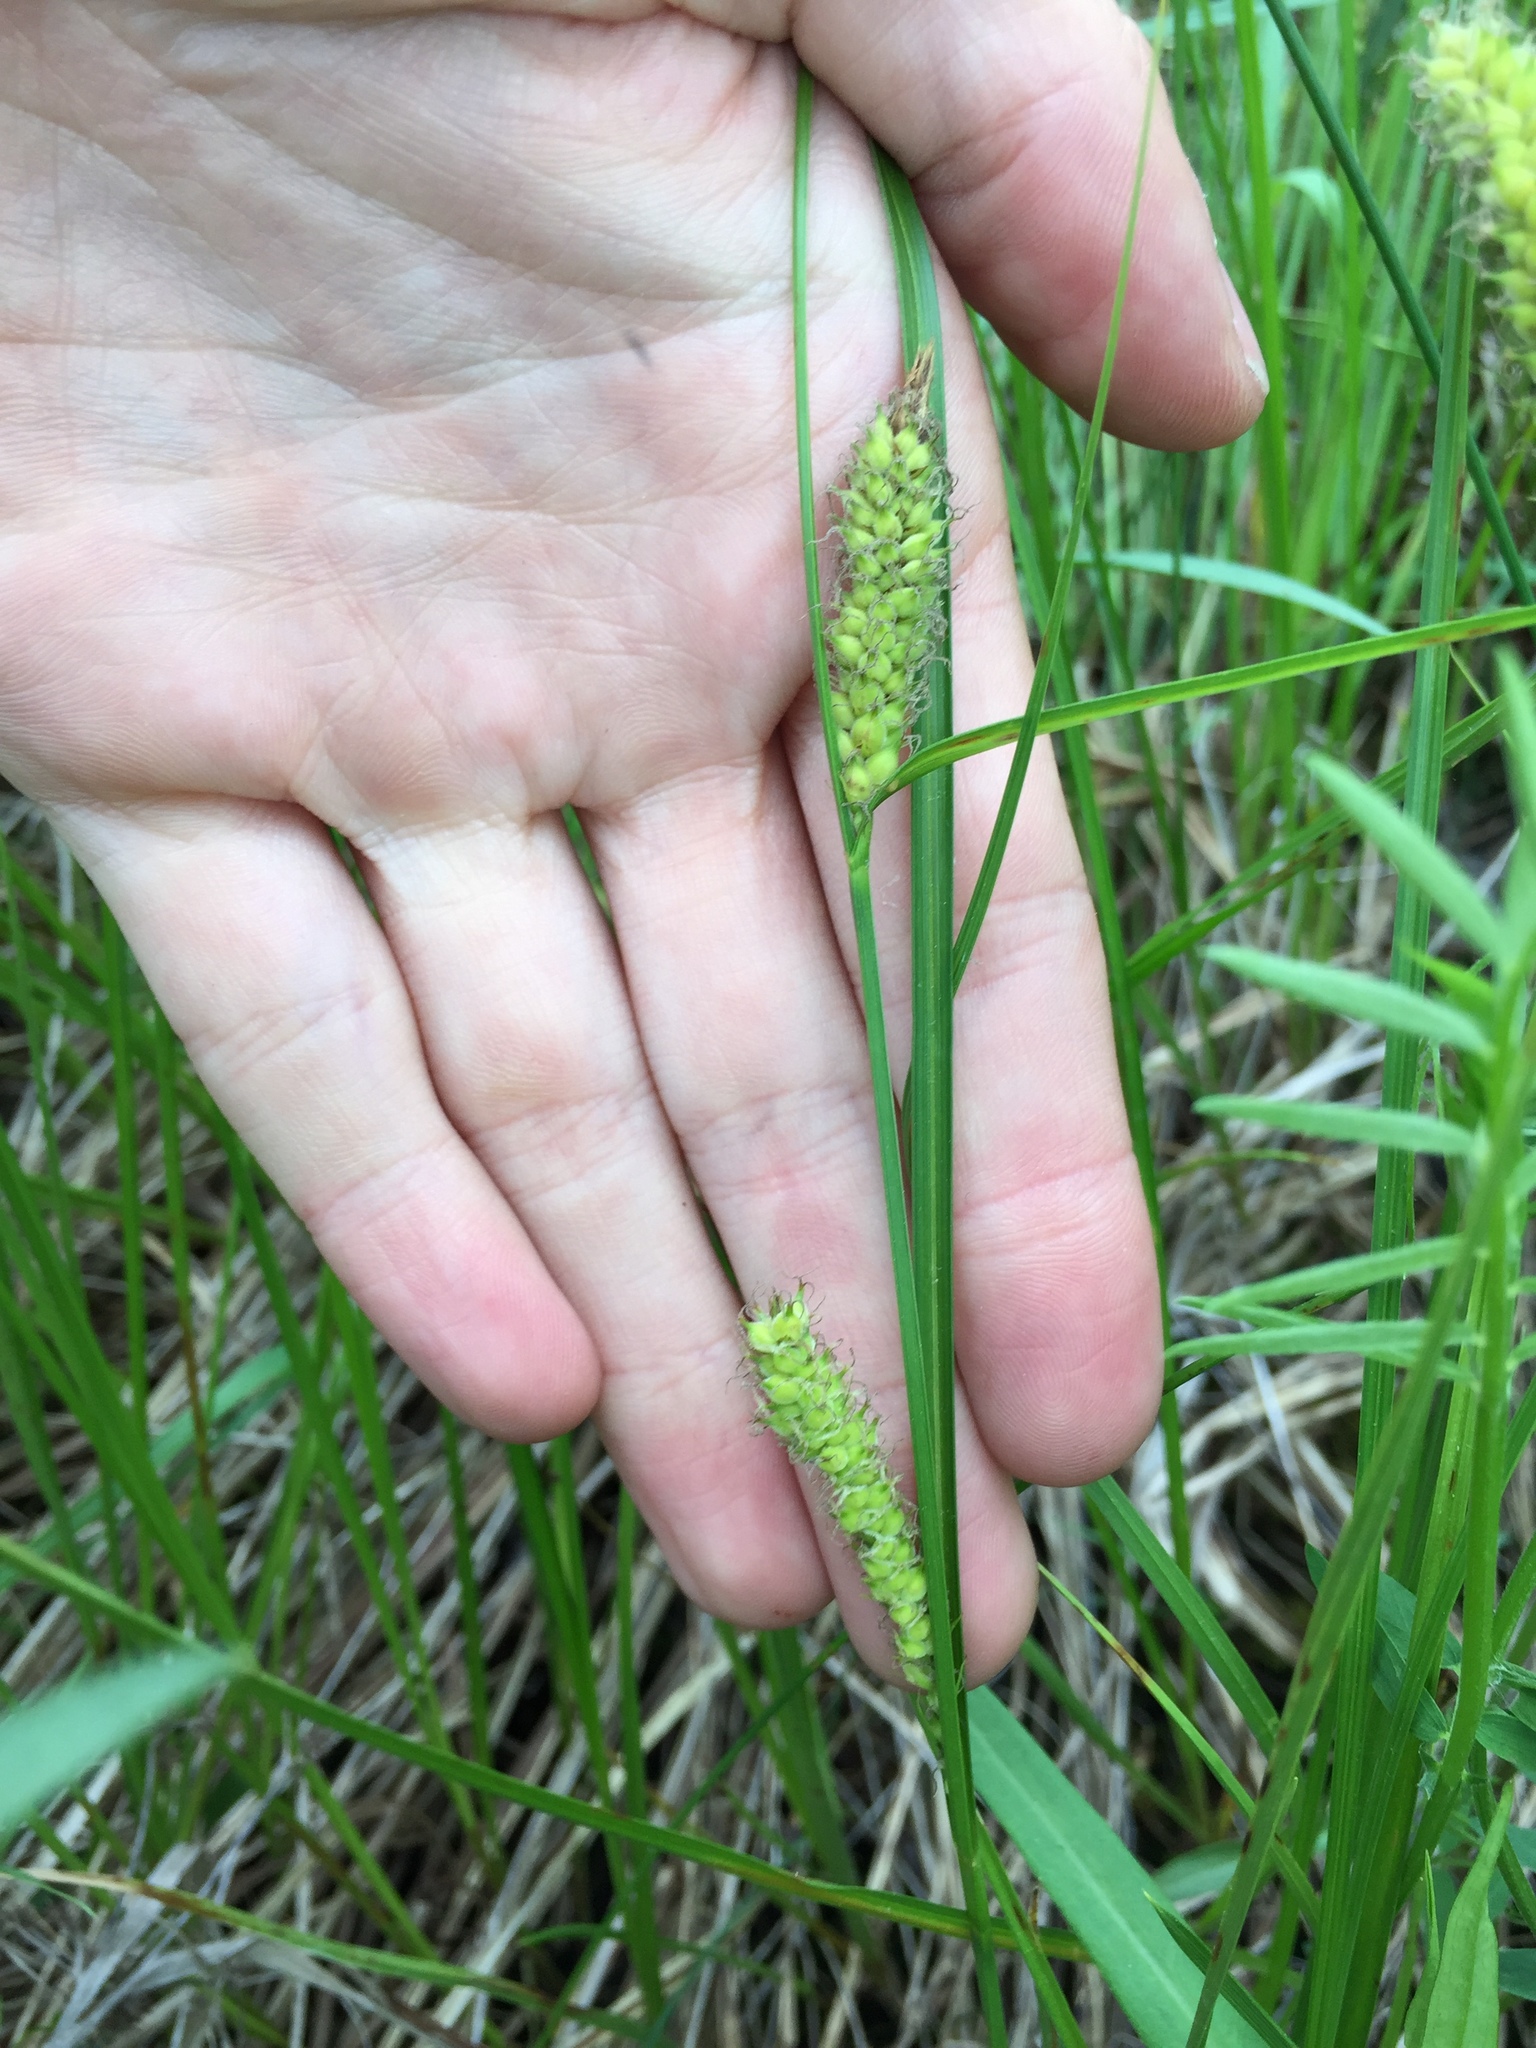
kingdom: Plantae
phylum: Tracheophyta
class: Liliopsida
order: Poales
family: Cyperaceae
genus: Carex
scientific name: Carex pellita
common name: Woolly sedge
